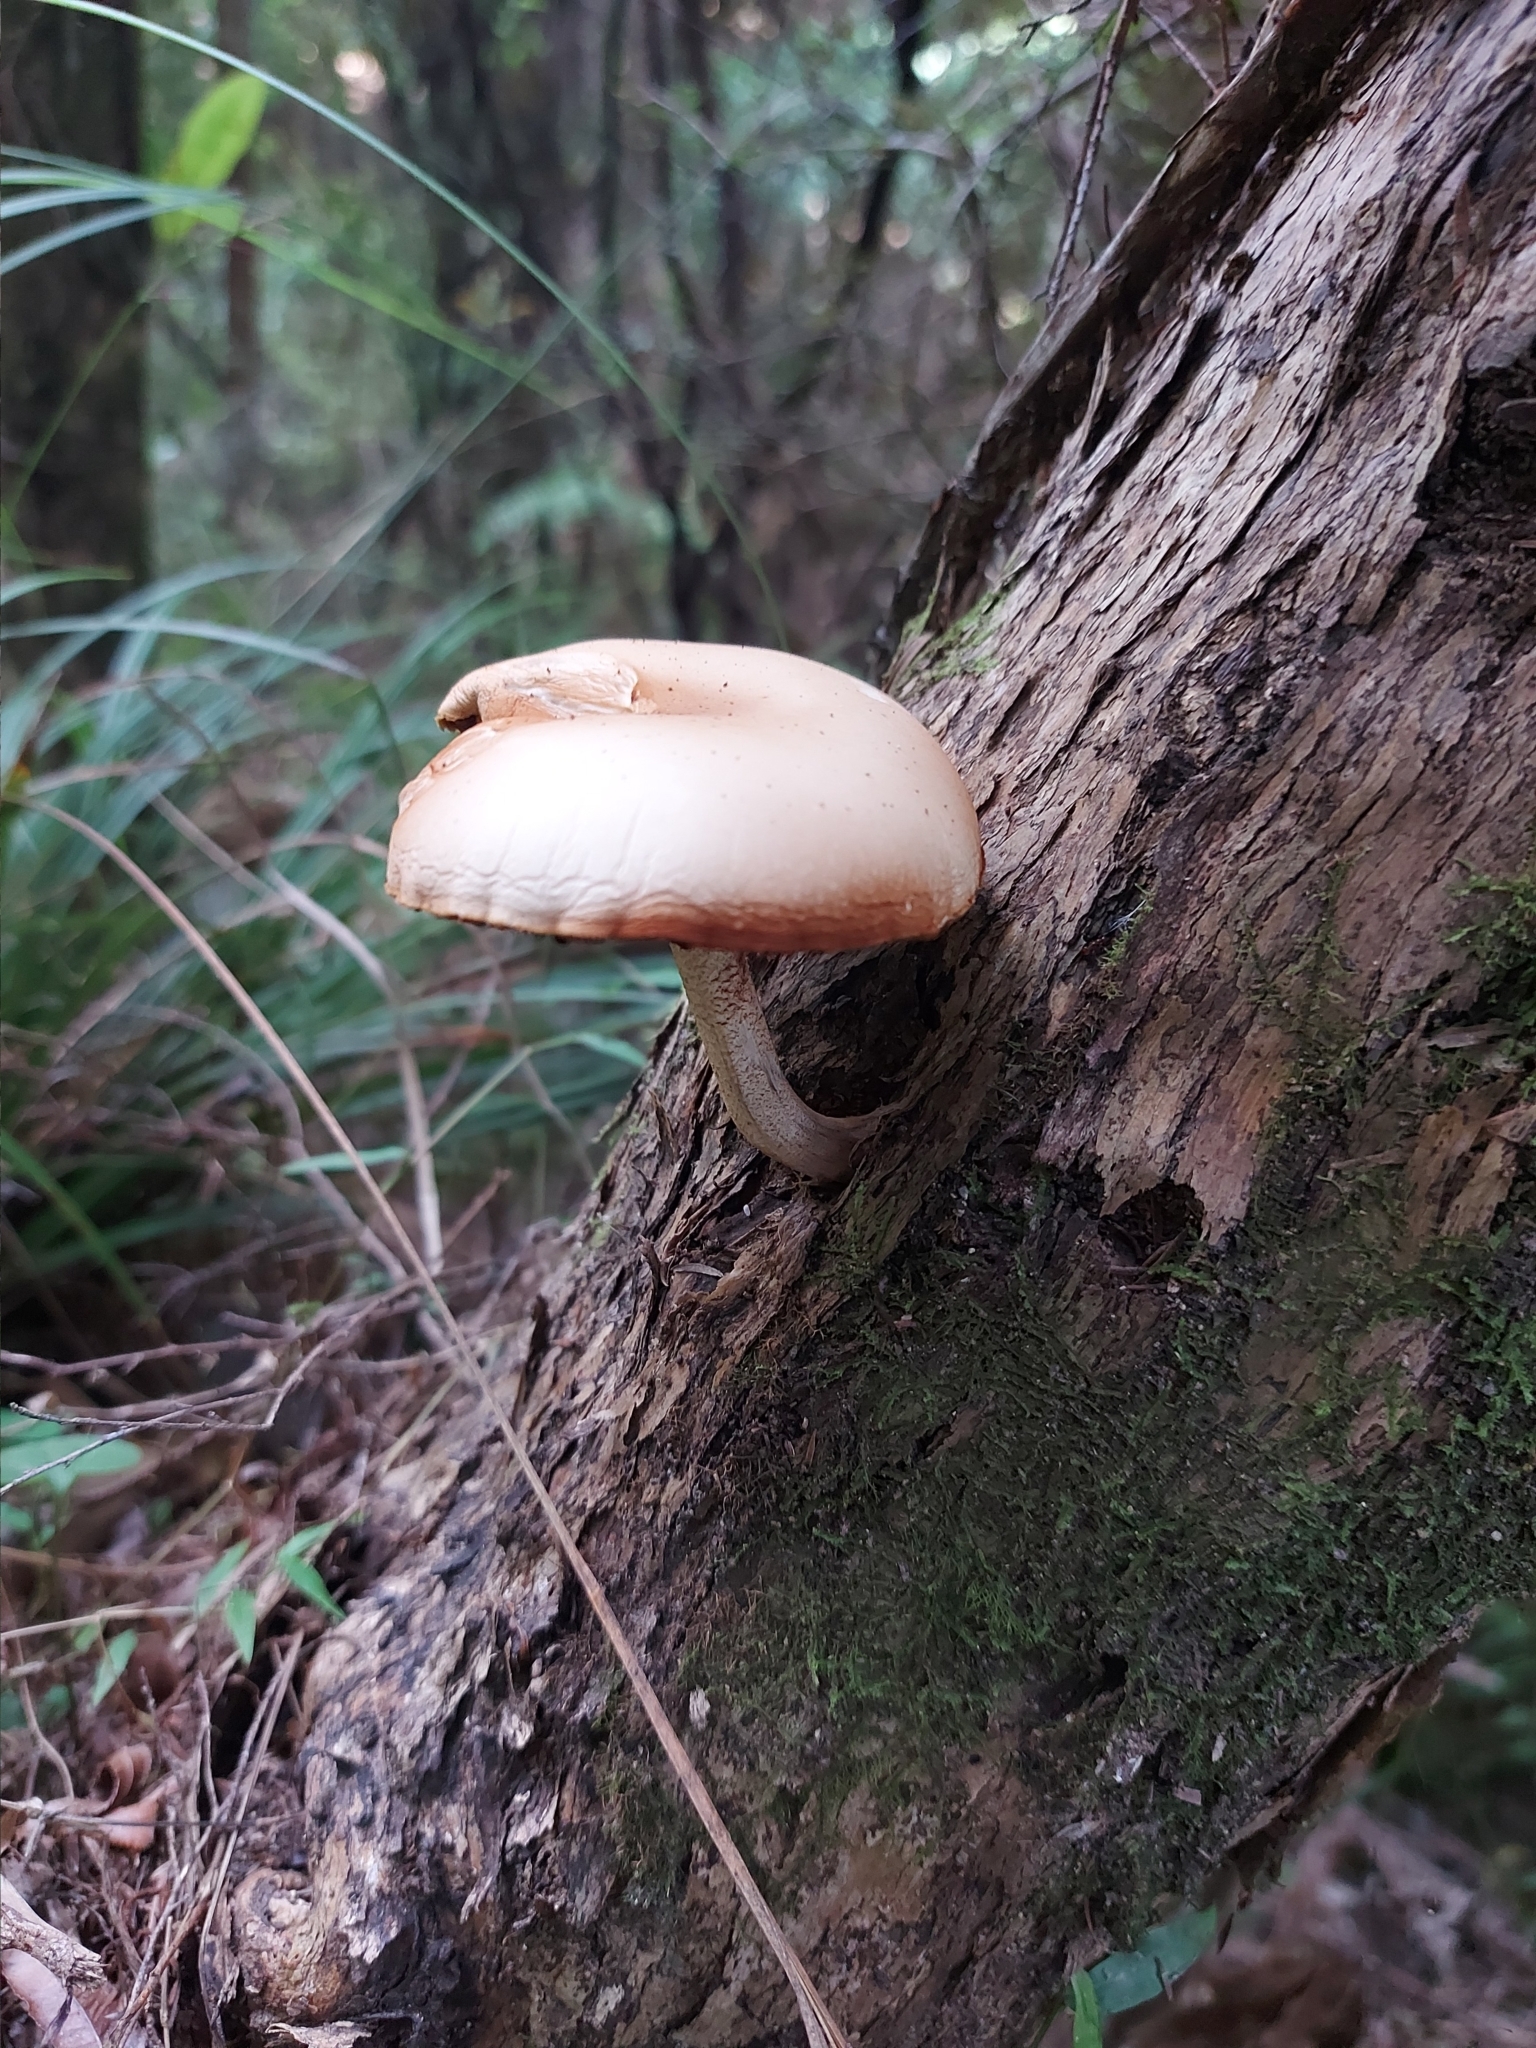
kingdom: Fungi
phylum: Basidiomycota
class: Agaricomycetes
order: Agaricales
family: Tubariaceae
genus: Cyclocybe
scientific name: Cyclocybe parasitica
